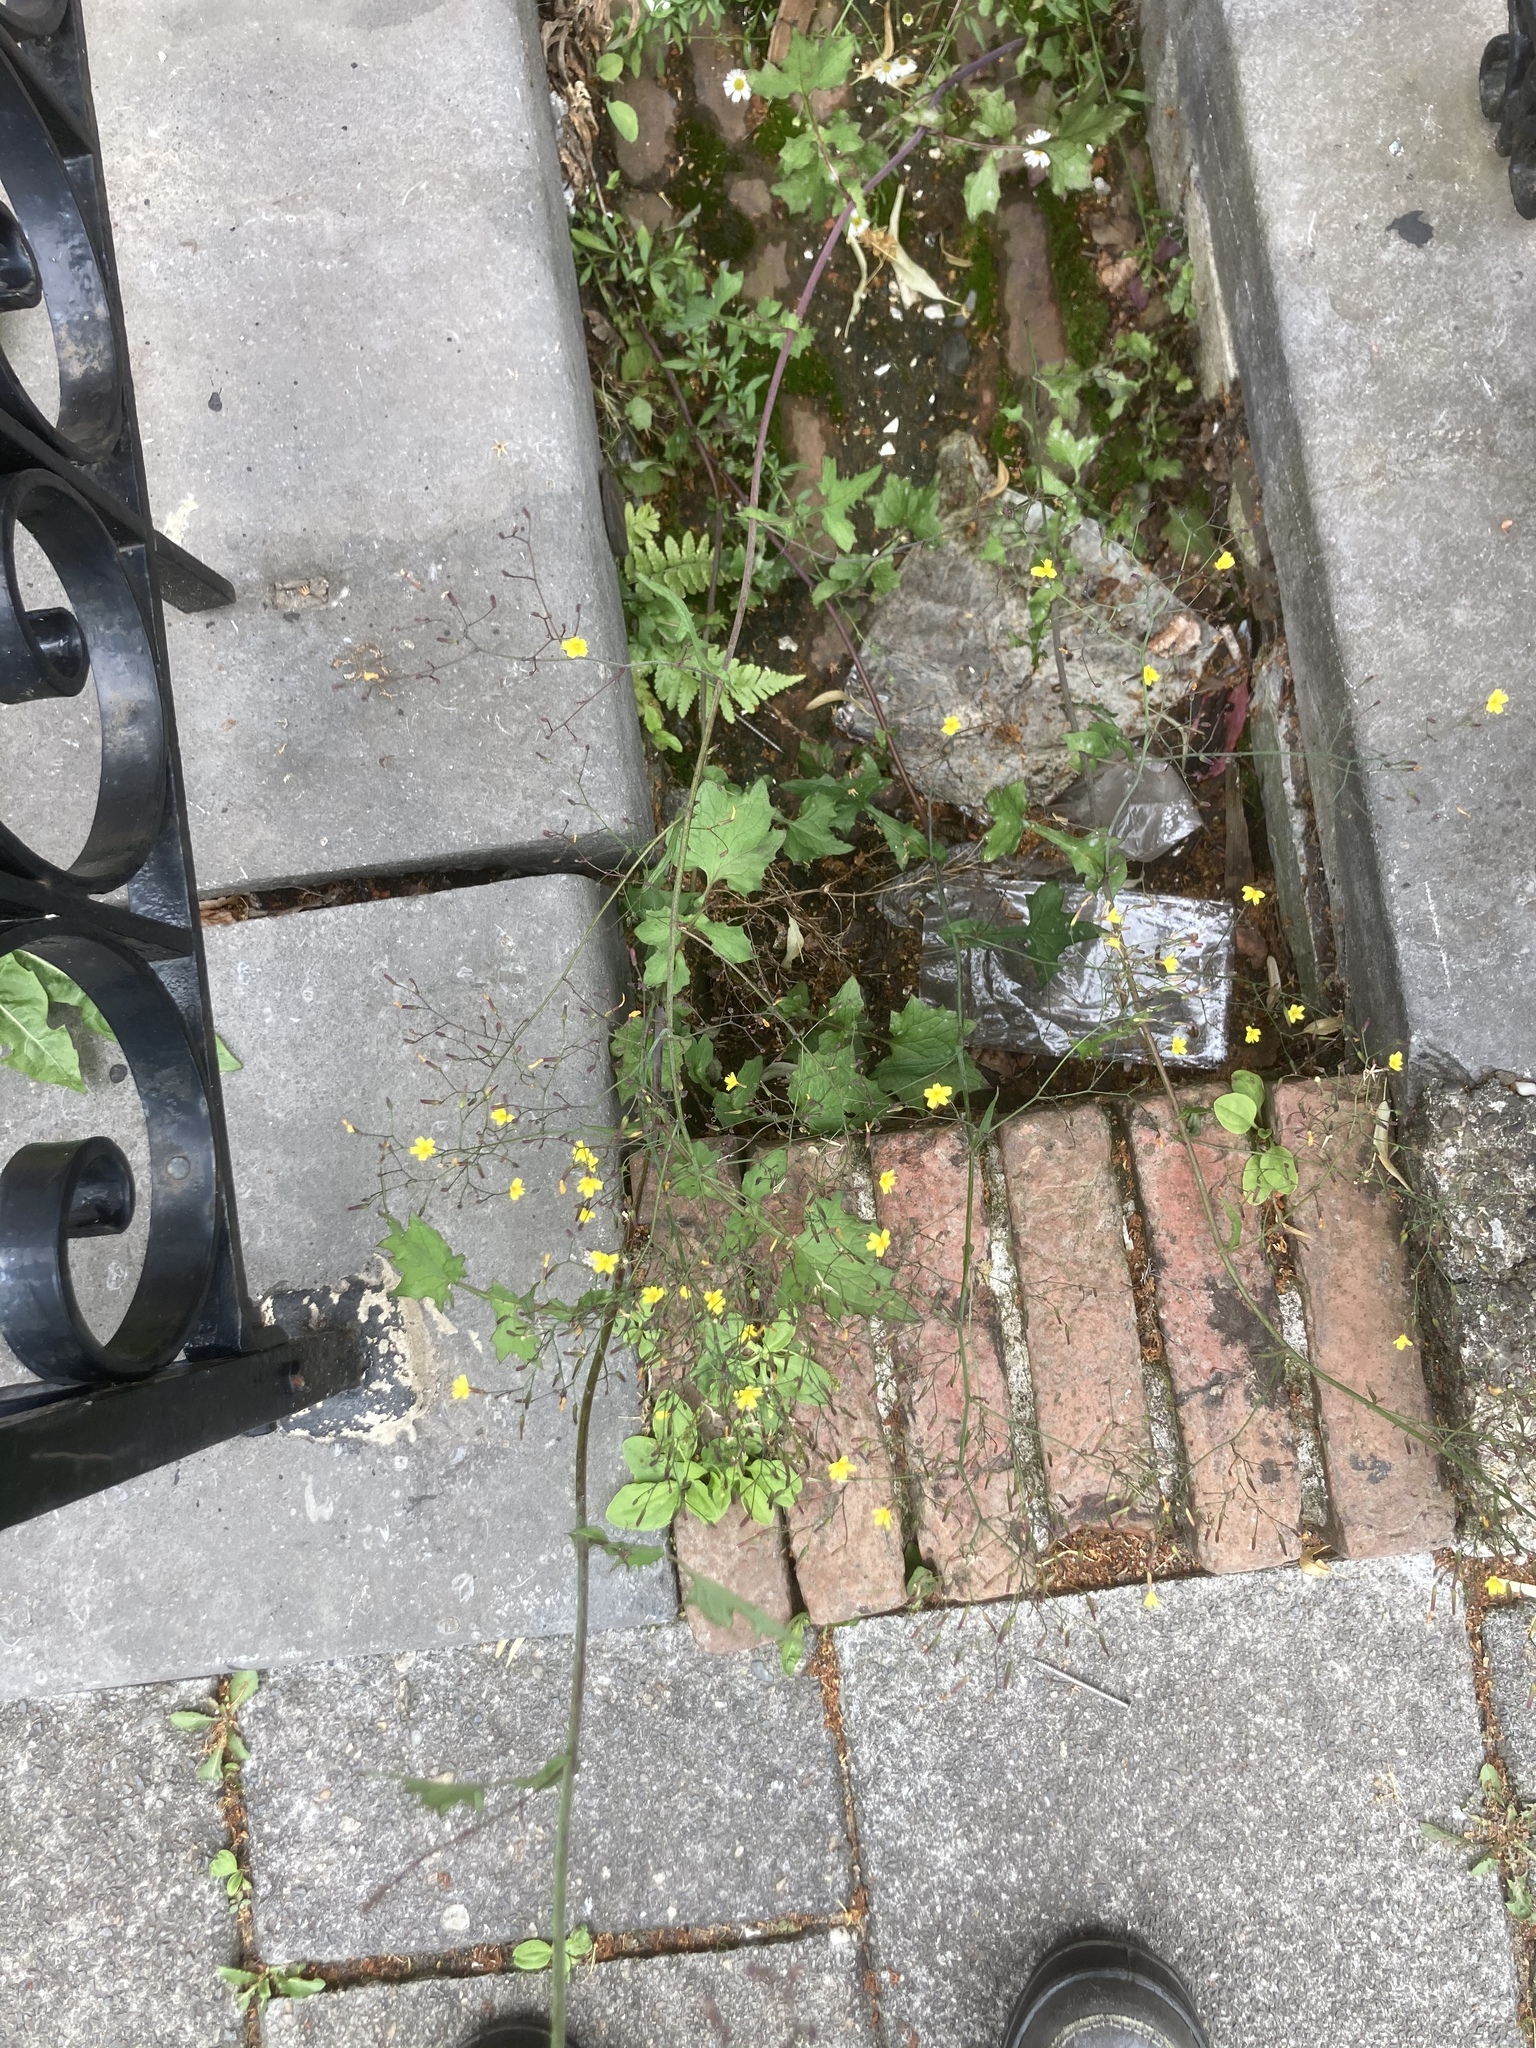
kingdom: Plantae
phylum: Tracheophyta
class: Magnoliopsida
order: Asterales
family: Asteraceae
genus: Mycelis
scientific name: Mycelis muralis
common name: Wall lettuce
